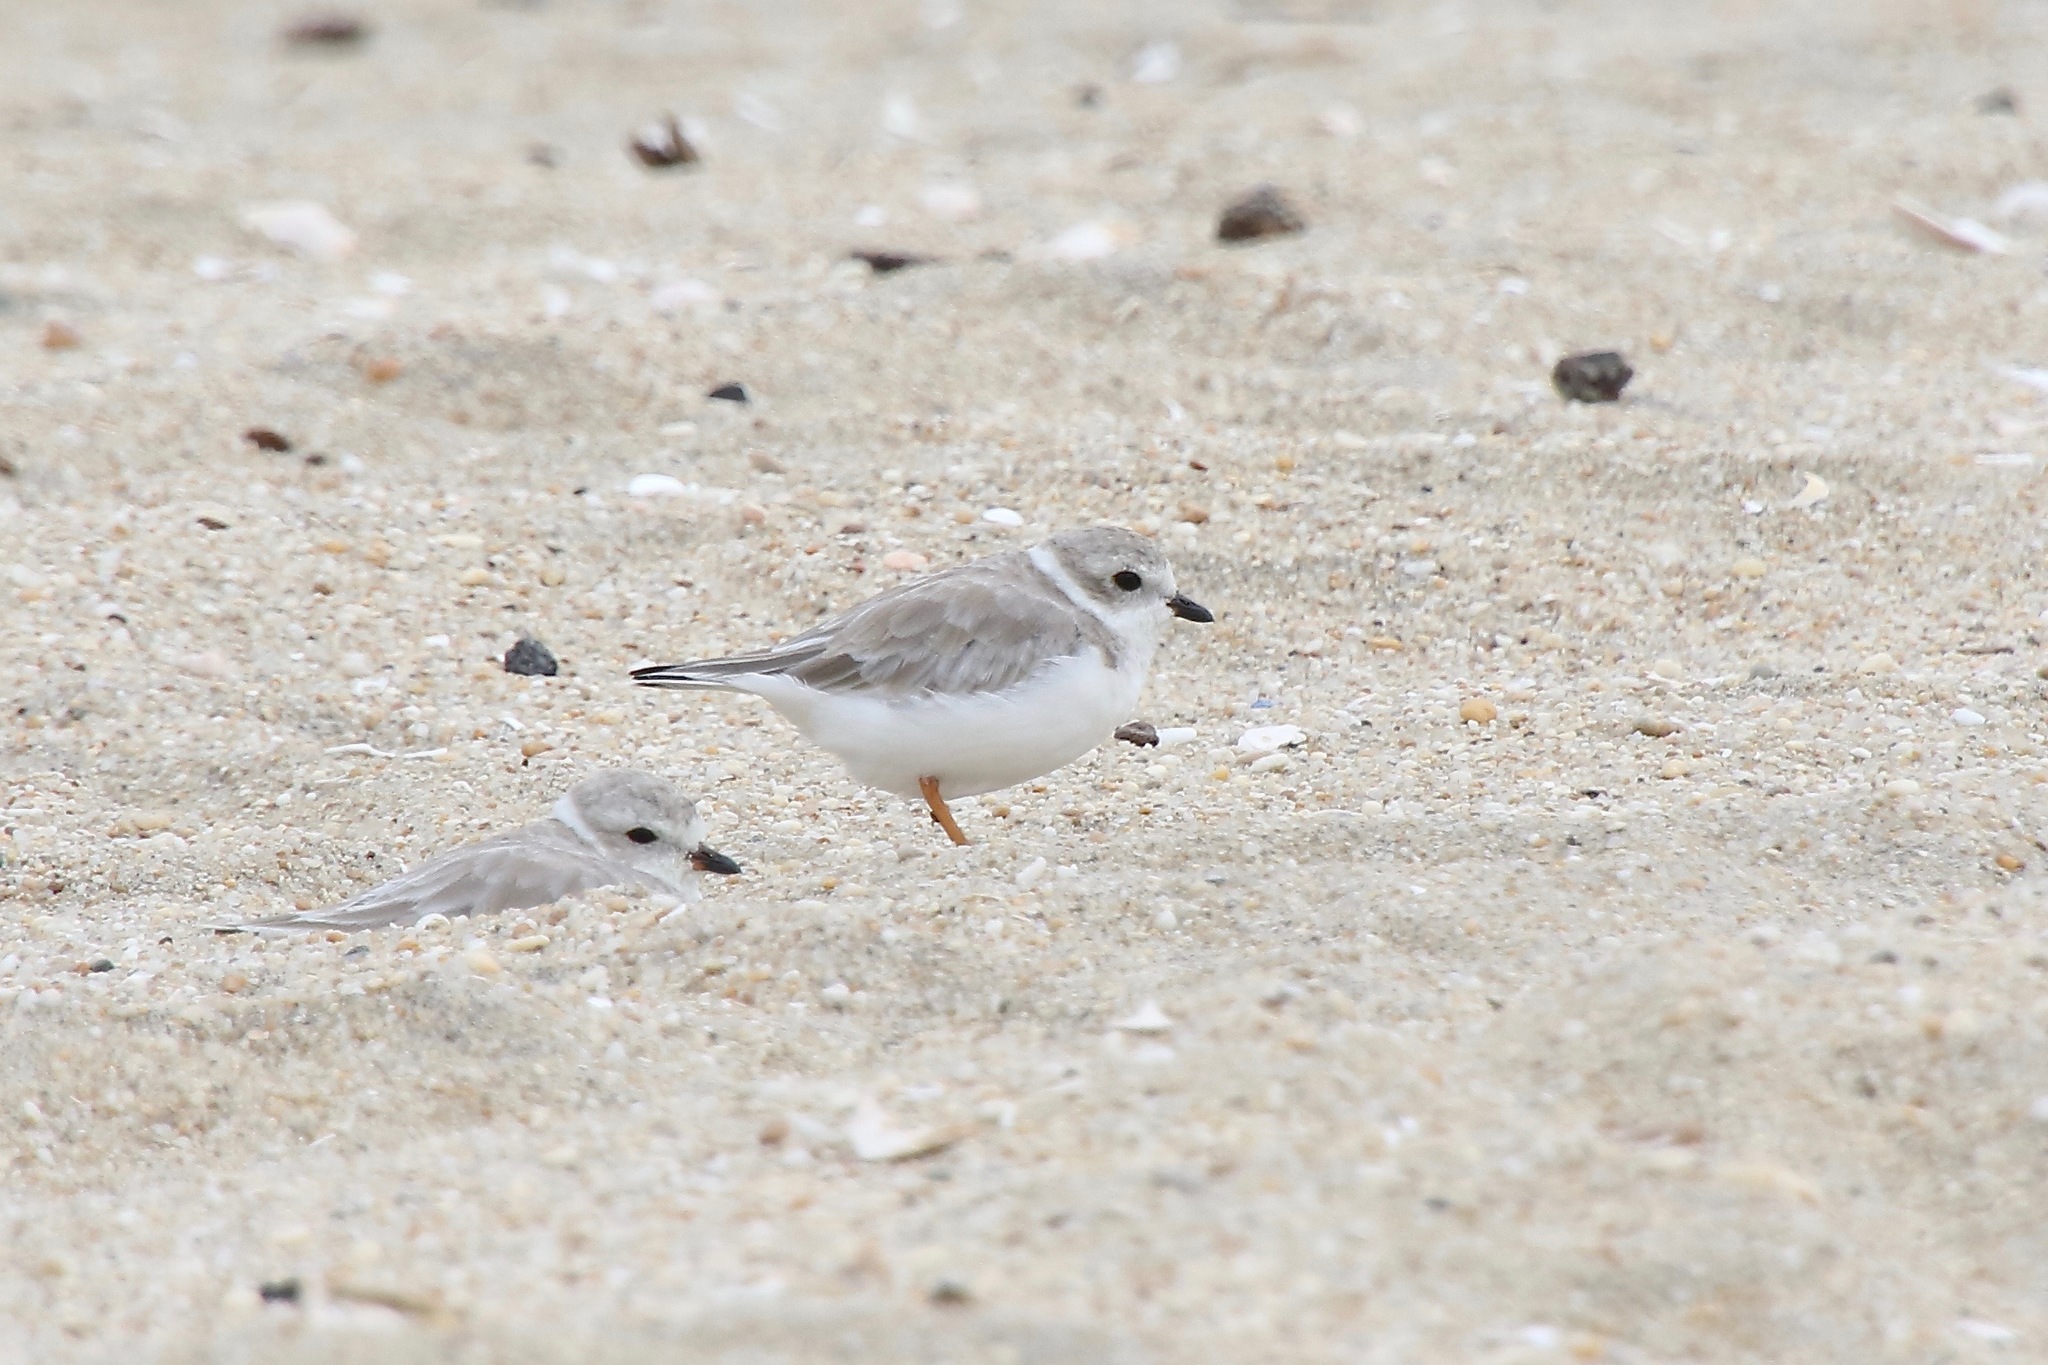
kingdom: Animalia
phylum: Chordata
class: Aves
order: Charadriiformes
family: Charadriidae
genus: Charadrius
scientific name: Charadrius melodus
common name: Piping plover
